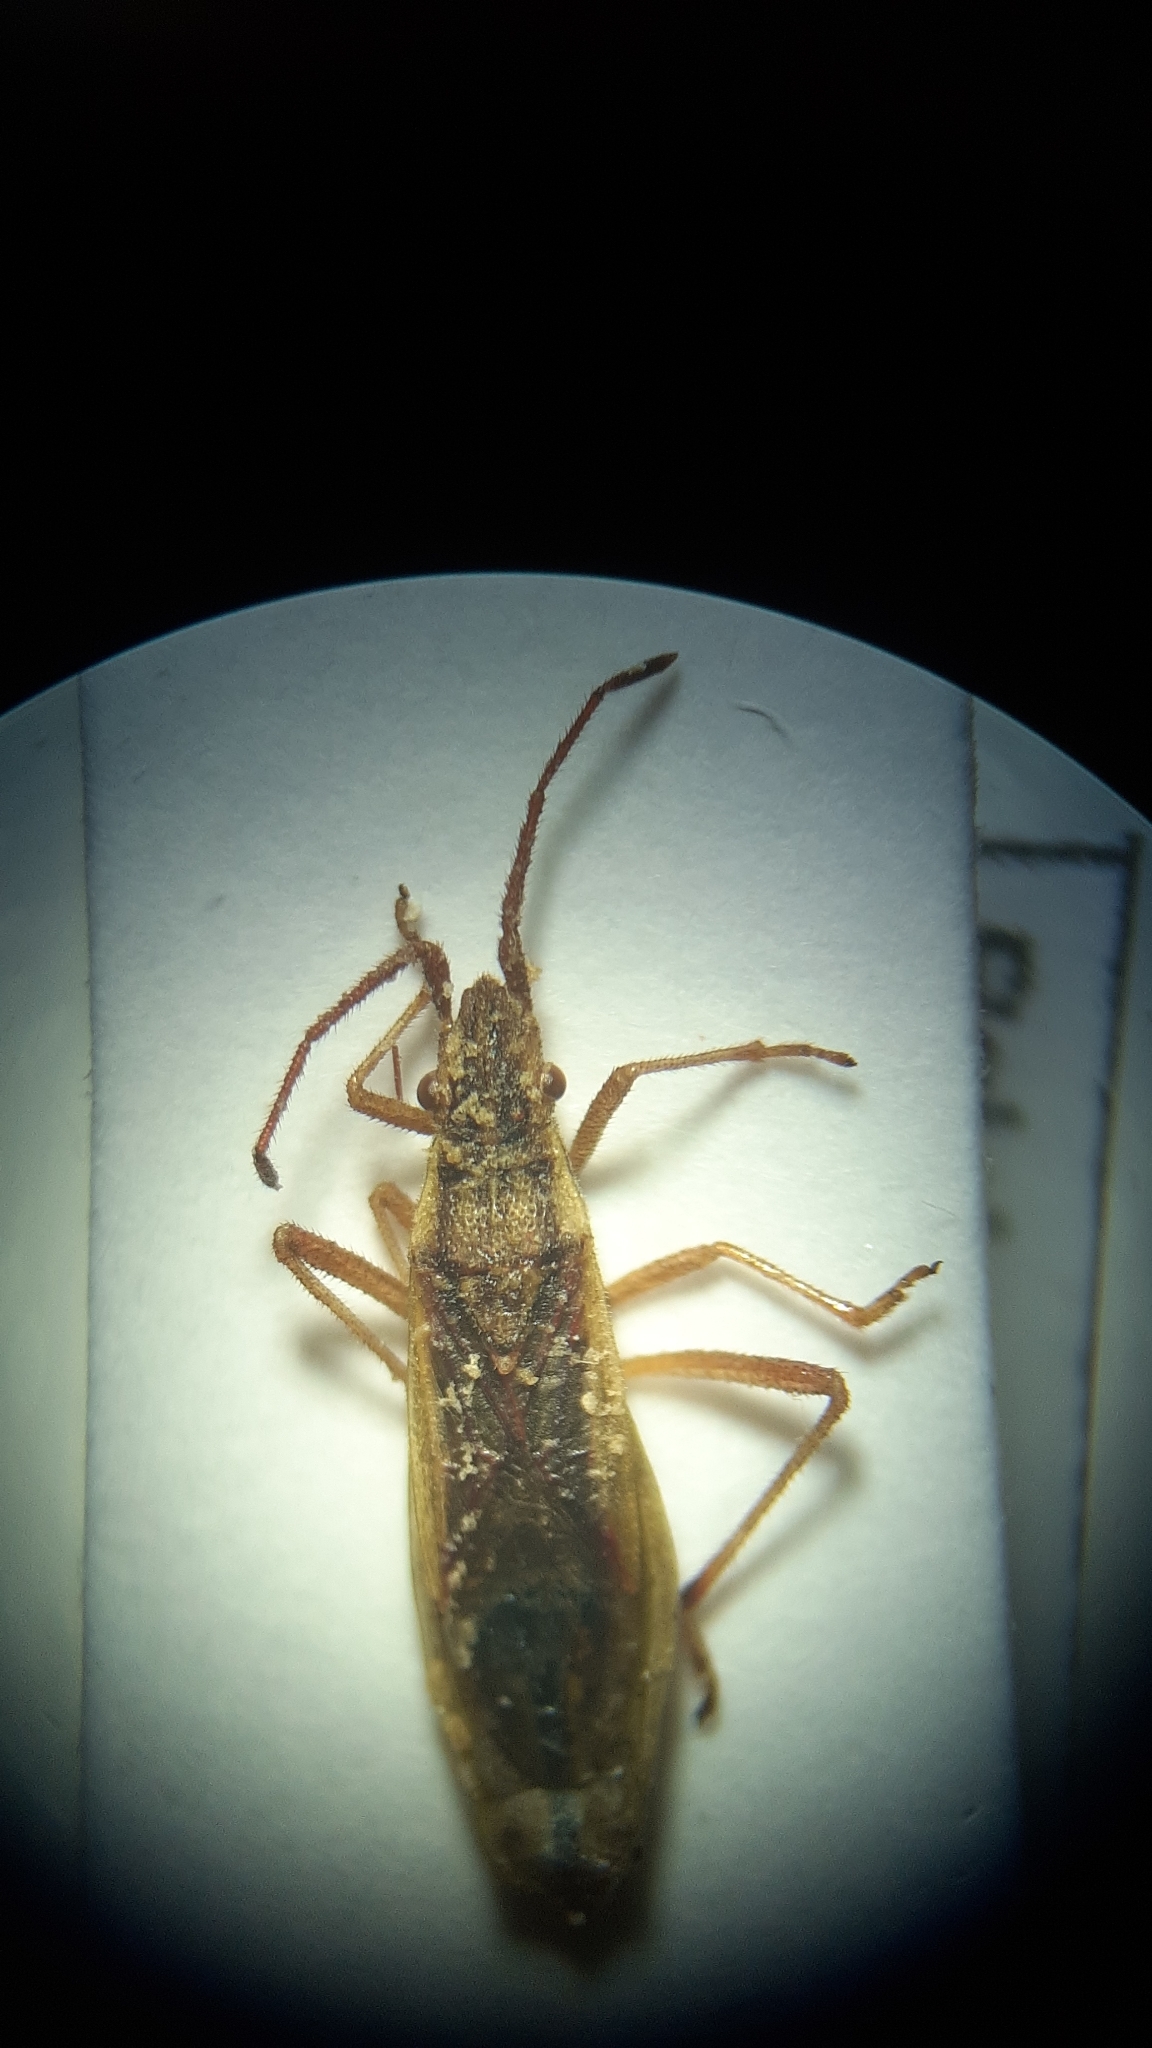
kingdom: Animalia
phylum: Arthropoda
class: Insecta
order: Hemiptera
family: Rhopalidae
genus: Myrmus
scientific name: Myrmus miriformis
